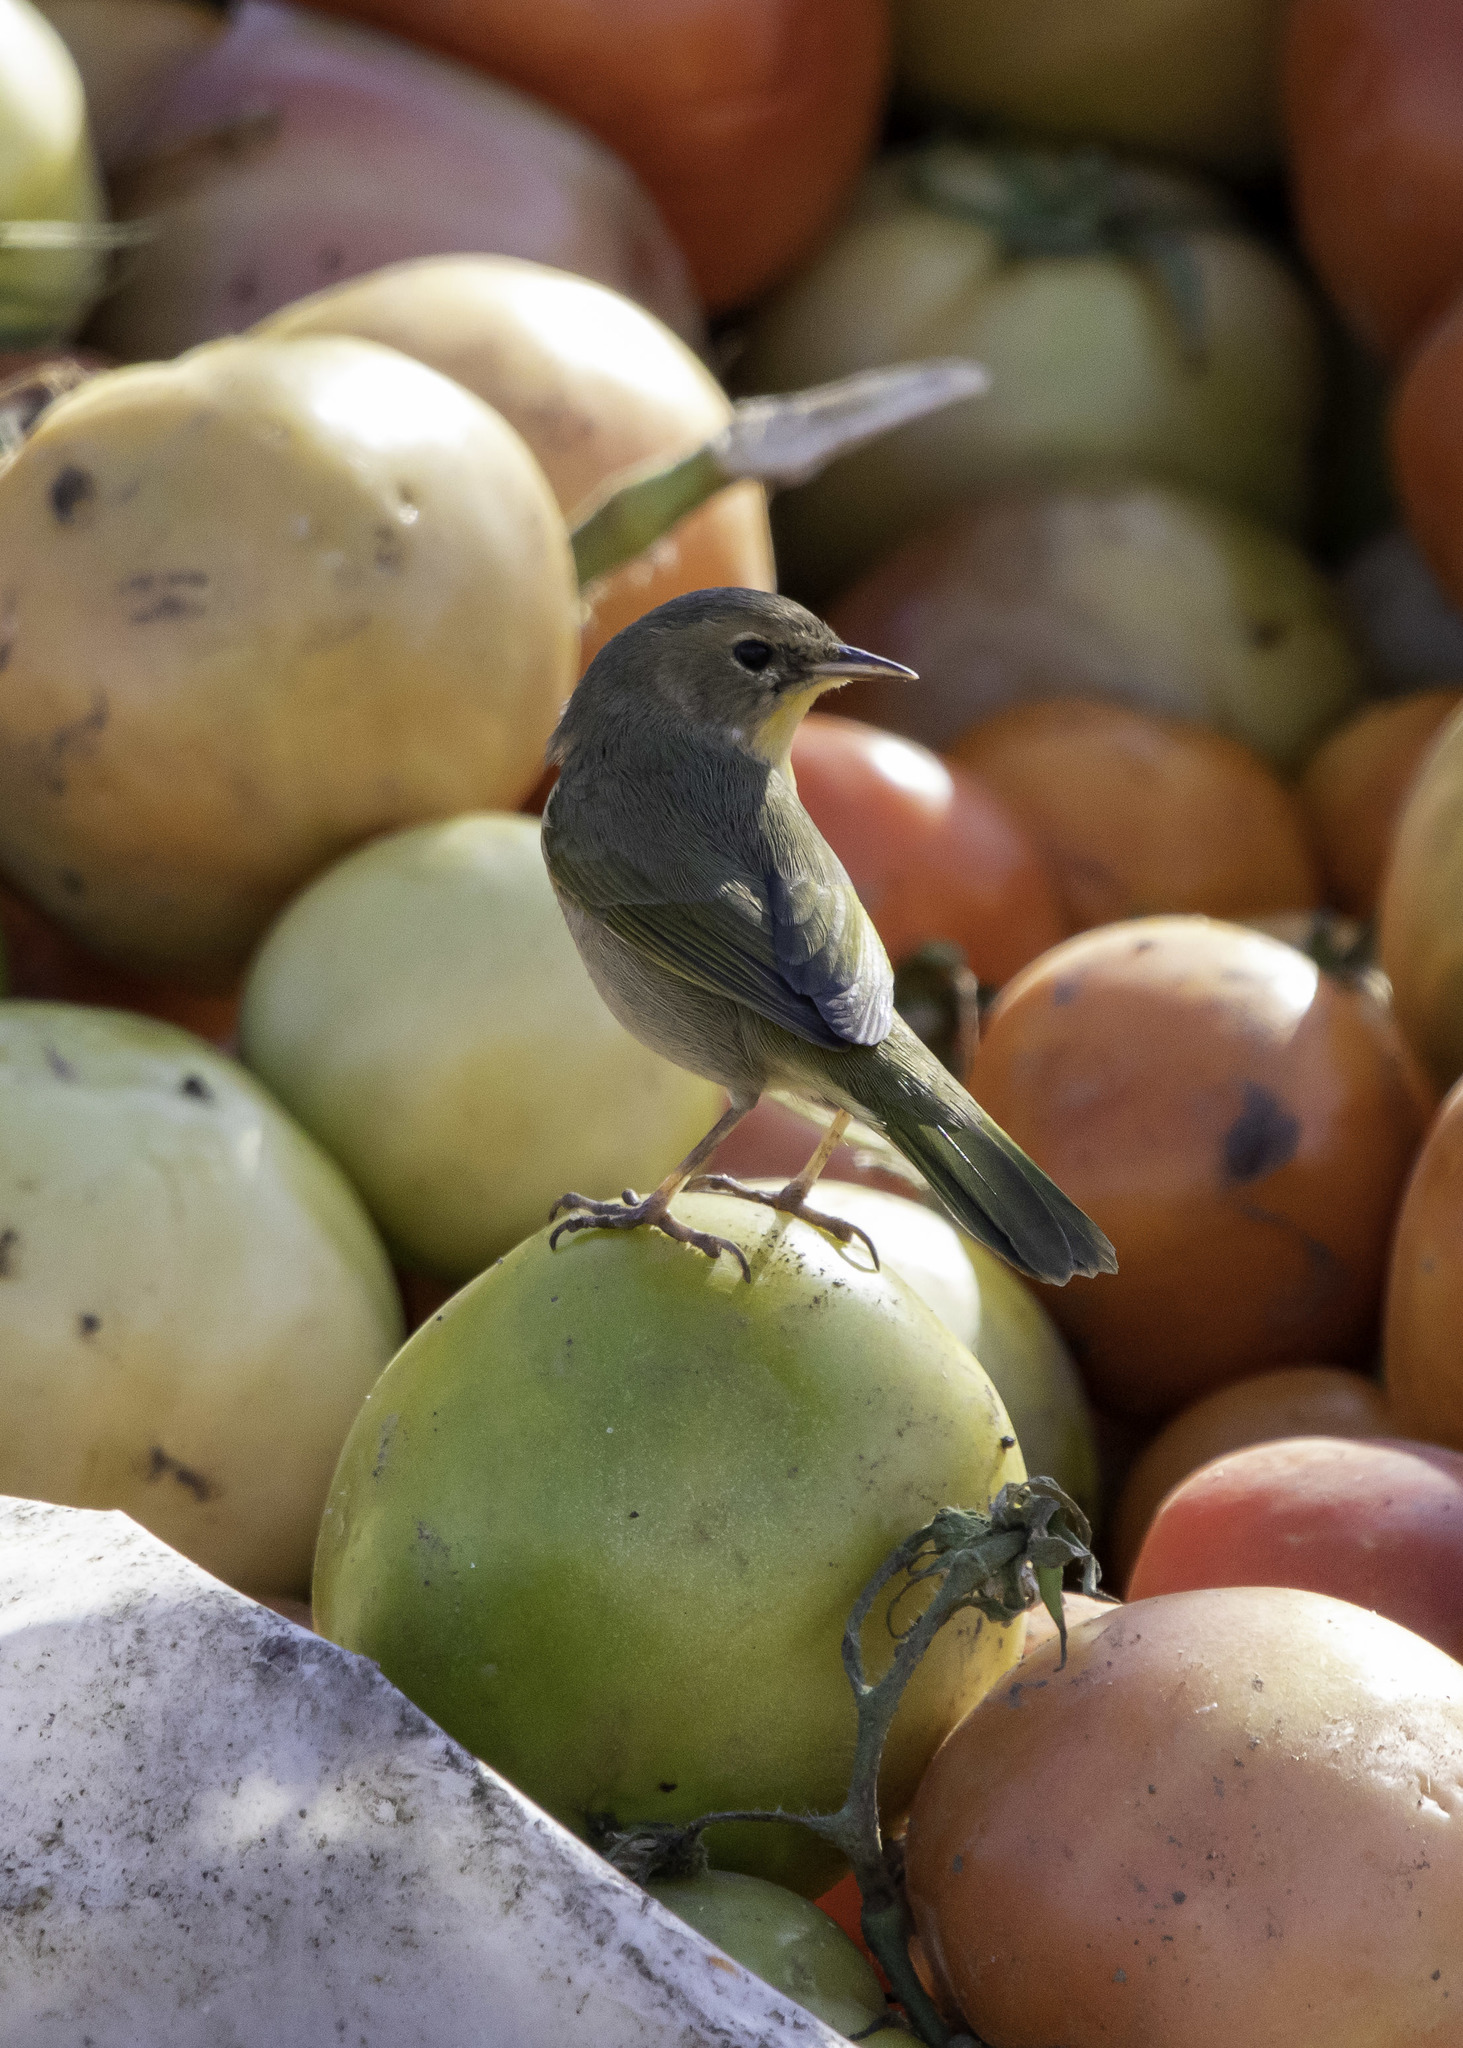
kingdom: Animalia
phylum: Chordata
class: Aves
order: Passeriformes
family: Parulidae
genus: Geothlypis
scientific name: Geothlypis trichas
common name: Common yellowthroat
